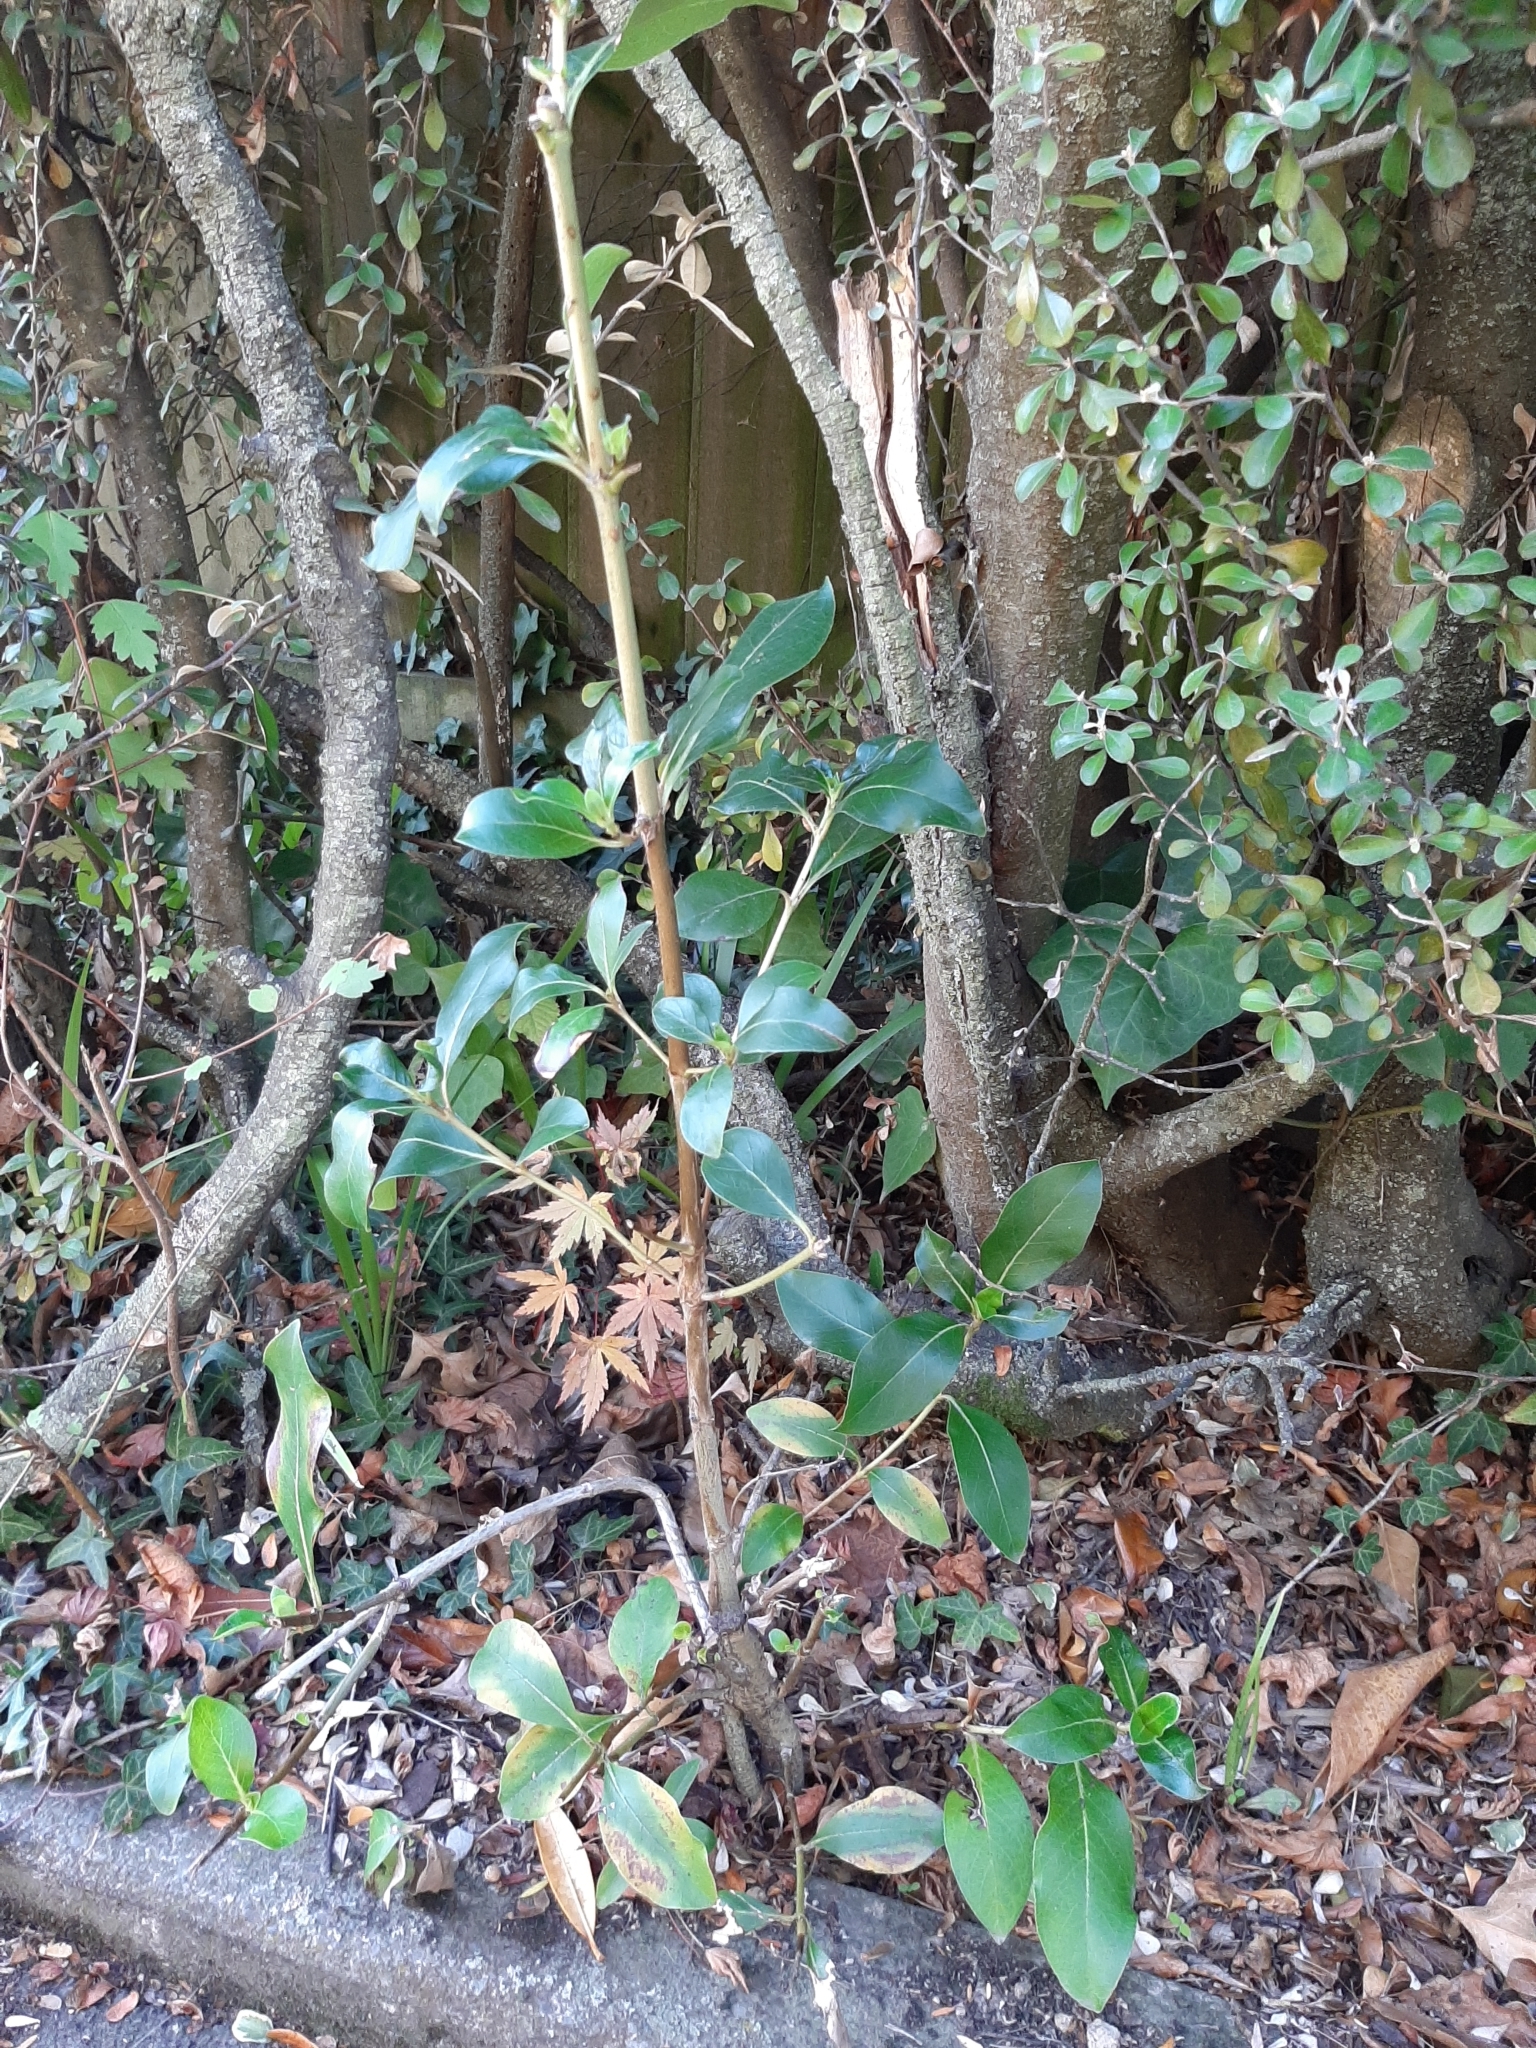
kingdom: Plantae
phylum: Tracheophyta
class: Magnoliopsida
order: Gentianales
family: Rubiaceae
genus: Coprosma
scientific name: Coprosma robusta
